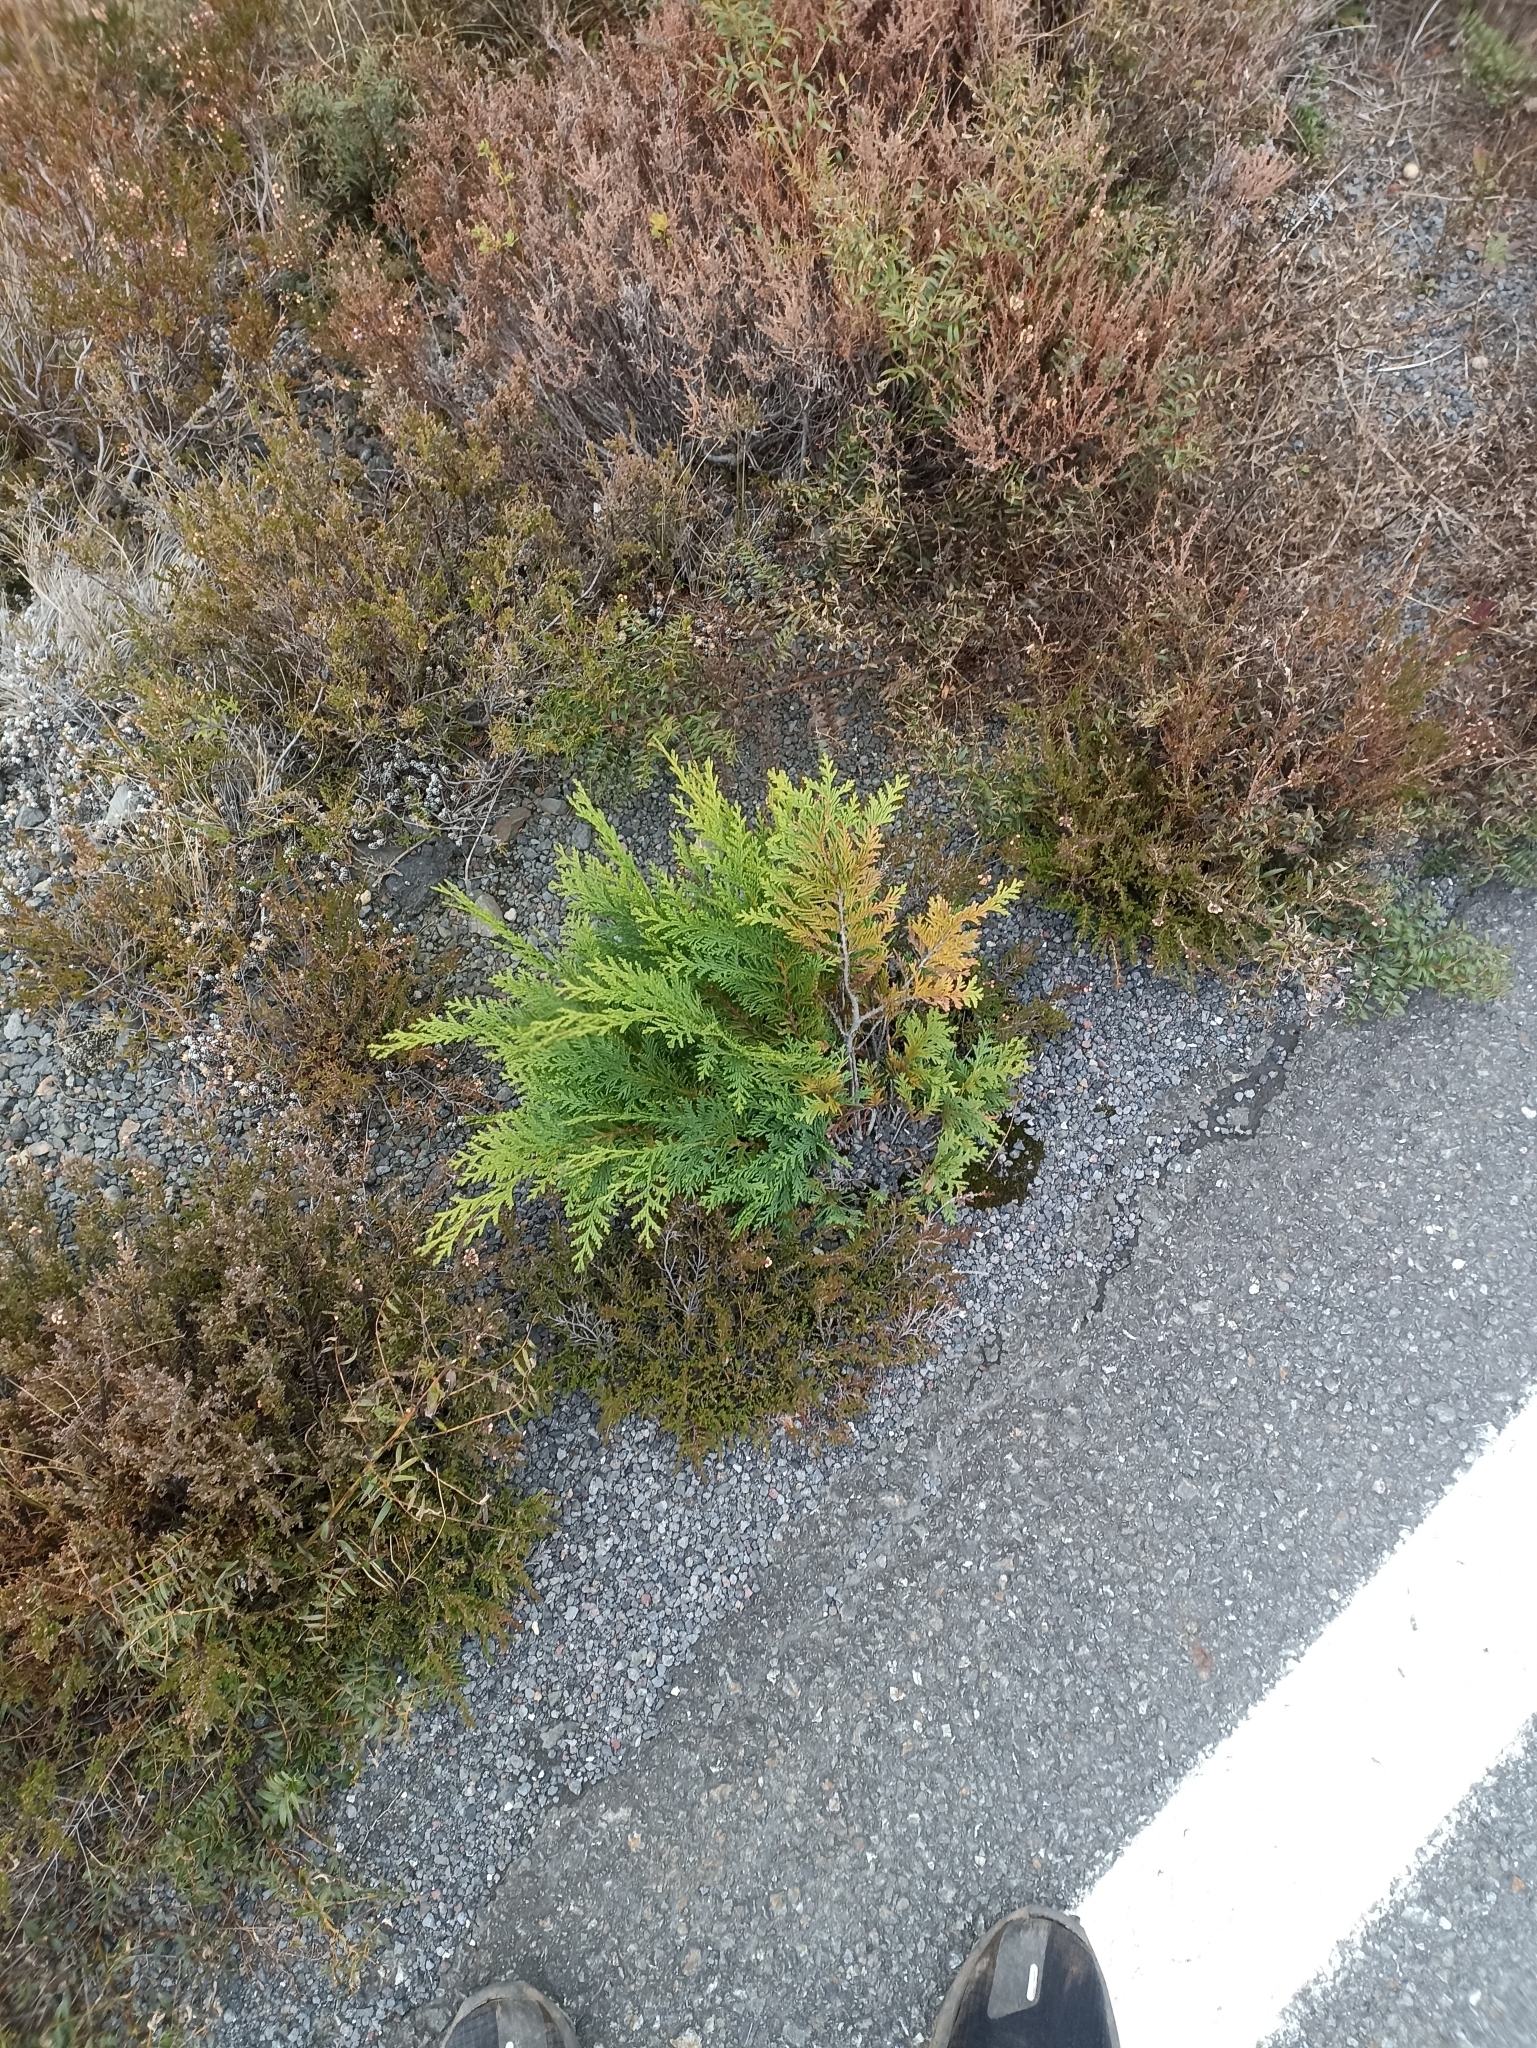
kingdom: Plantae
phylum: Tracheophyta
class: Pinopsida
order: Pinales
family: Cupressaceae
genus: Chamaecyparis
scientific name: Chamaecyparis lawsoniana
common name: Lawson's cypress
